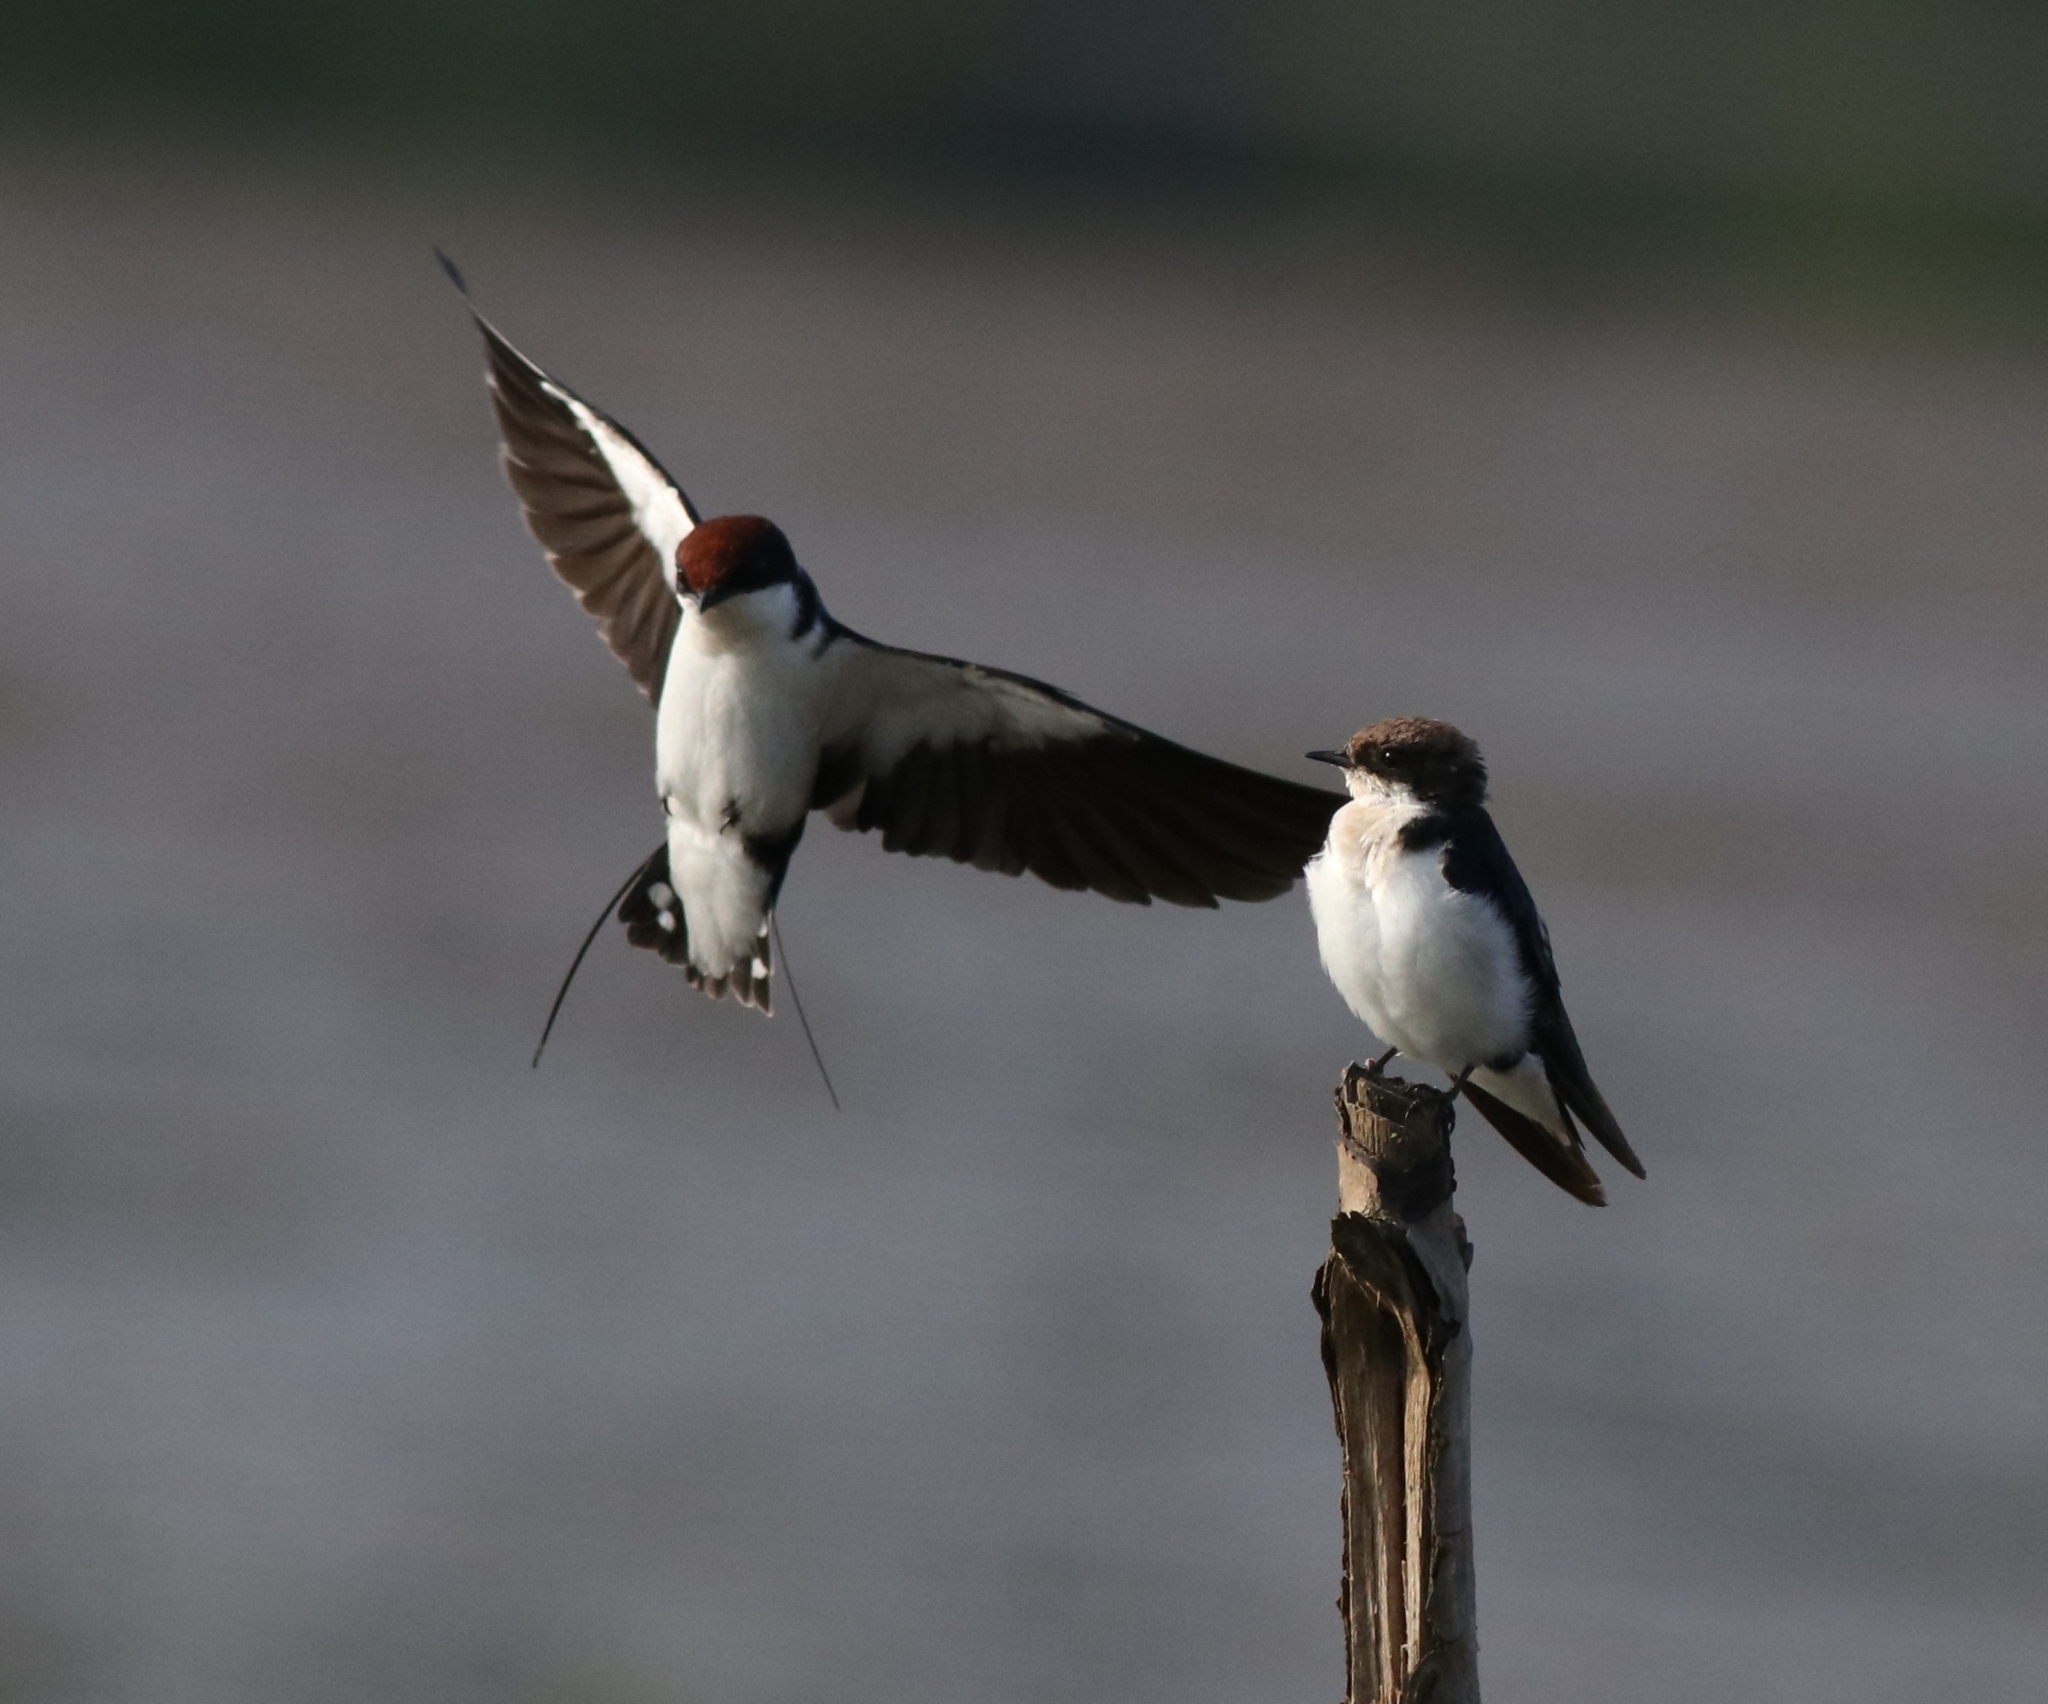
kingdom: Animalia
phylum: Chordata
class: Aves
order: Passeriformes
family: Hirundinidae
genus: Hirundo
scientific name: Hirundo smithii
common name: Wire-tailed swallow
